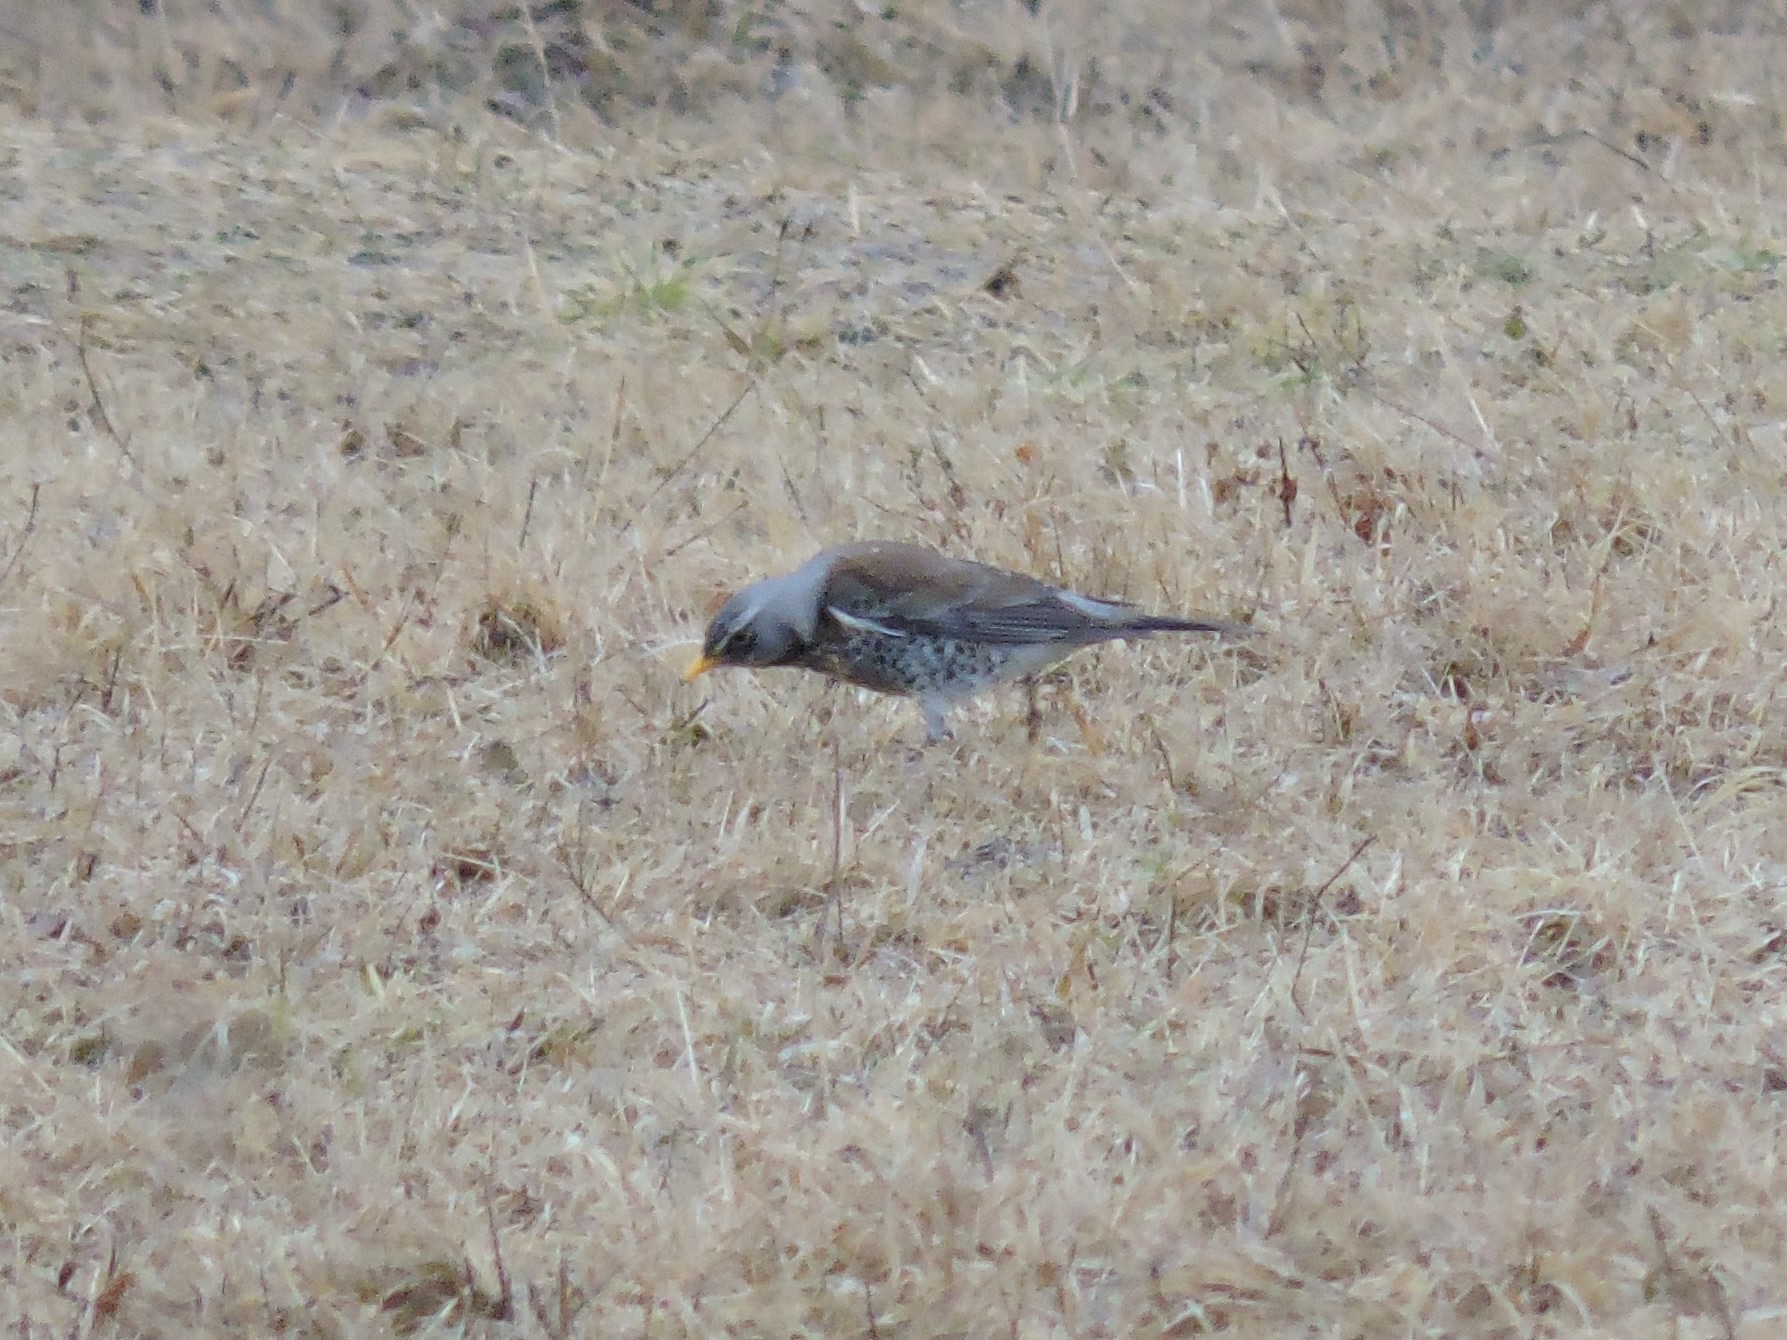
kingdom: Animalia
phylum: Chordata
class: Aves
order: Passeriformes
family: Turdidae
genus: Turdus
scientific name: Turdus pilaris
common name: Fieldfare
